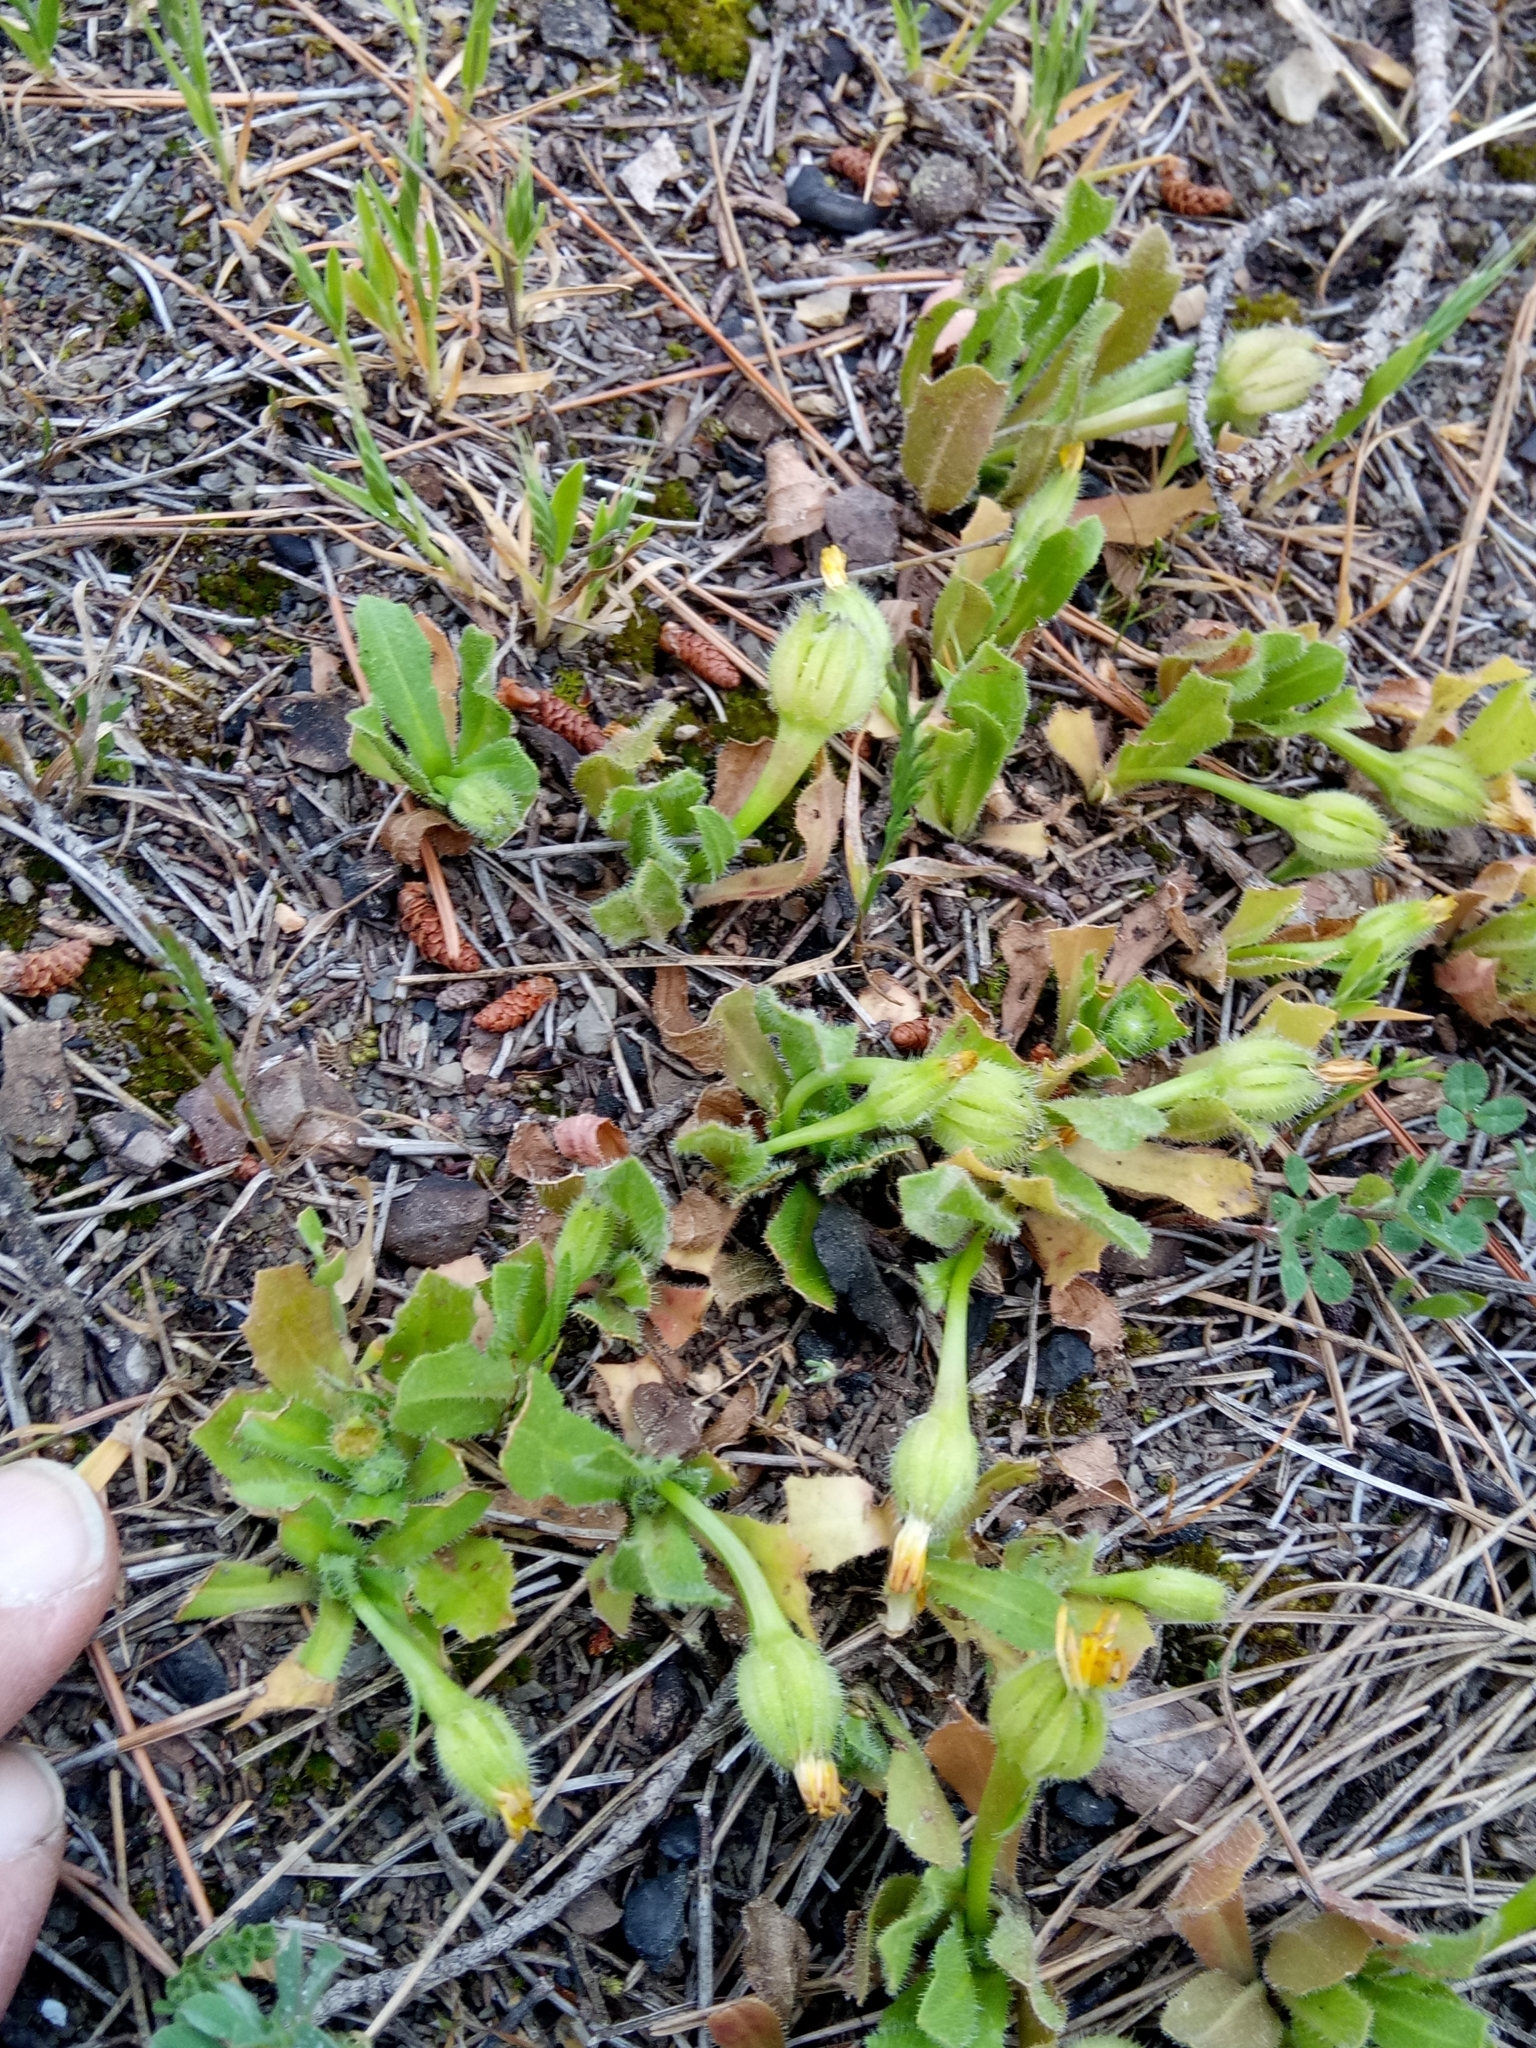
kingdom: Plantae
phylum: Tracheophyta
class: Magnoliopsida
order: Asterales
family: Asteraceae
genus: Hedypnois
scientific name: Hedypnois rhagadioloides
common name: Cretan weed
